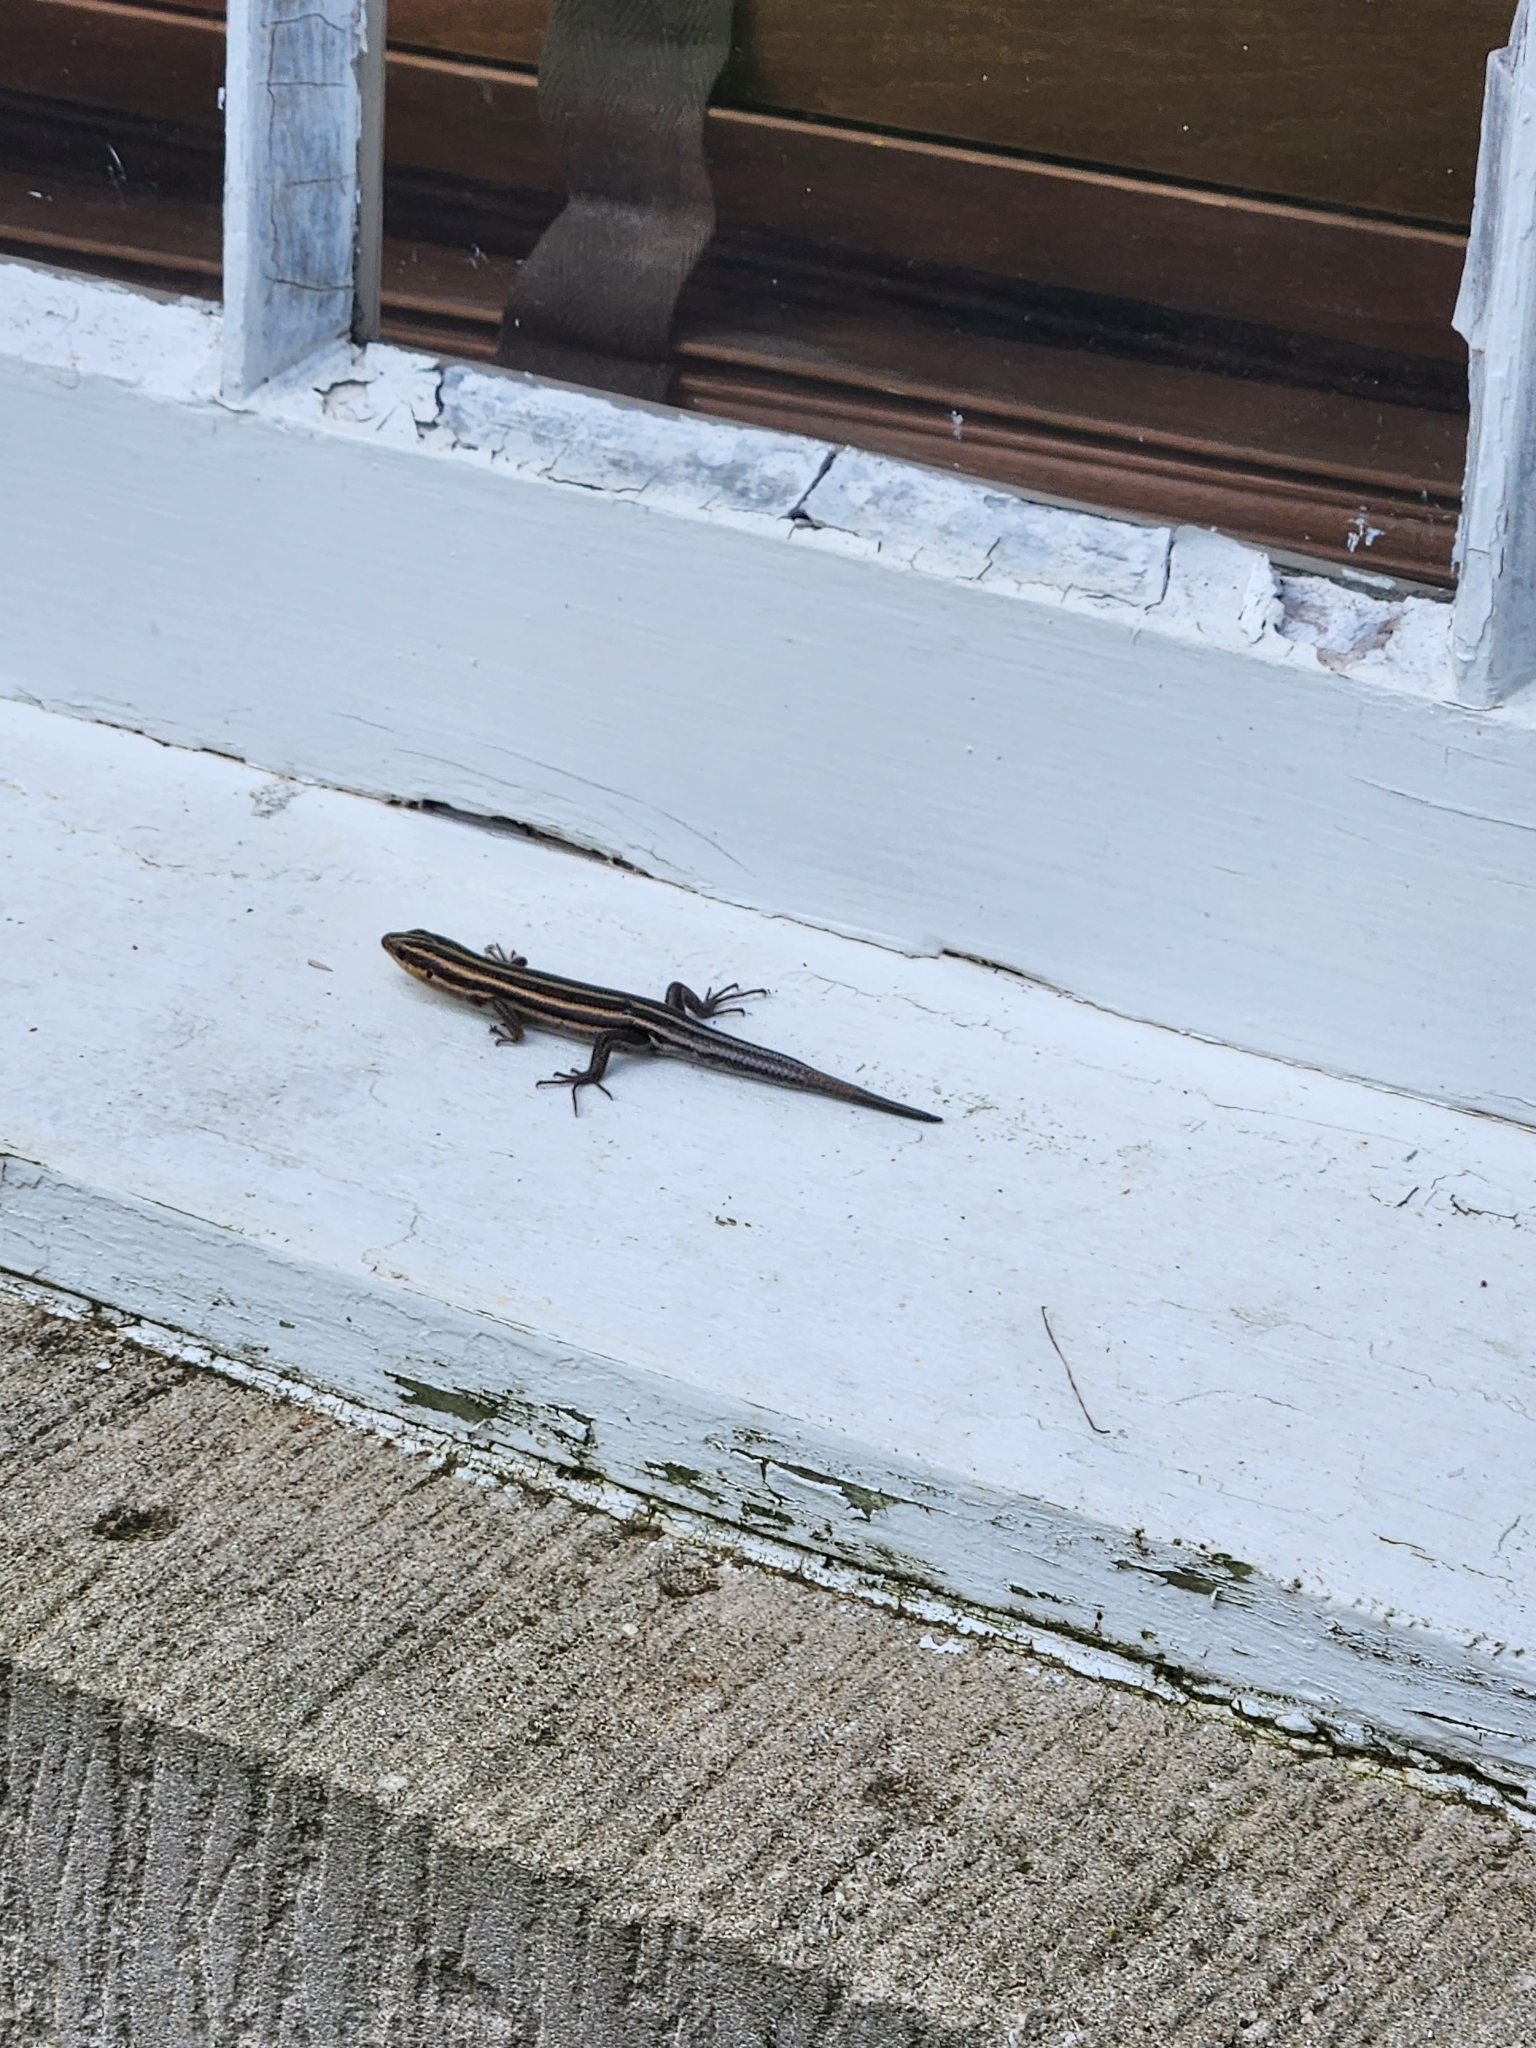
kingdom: Animalia
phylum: Chordata
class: Squamata
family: Scincidae
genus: Plestiodon
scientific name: Plestiodon fasciatus
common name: Five-lined skink
